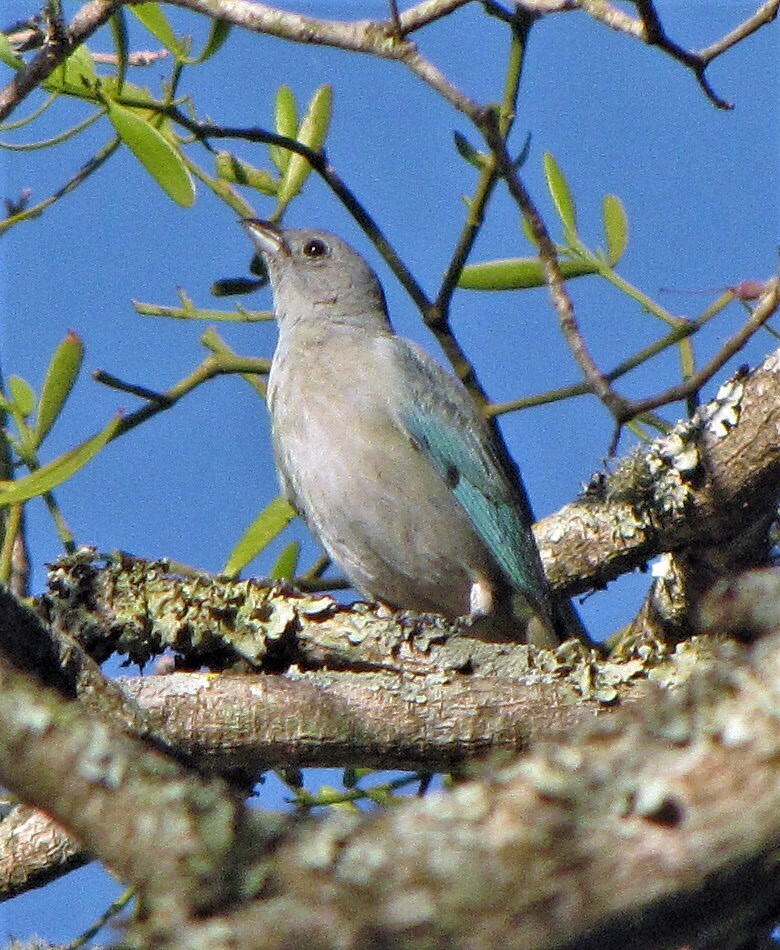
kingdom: Animalia
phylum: Chordata
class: Aves
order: Passeriformes
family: Thraupidae
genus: Thraupis
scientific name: Thraupis sayaca
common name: Sayaca tanager
